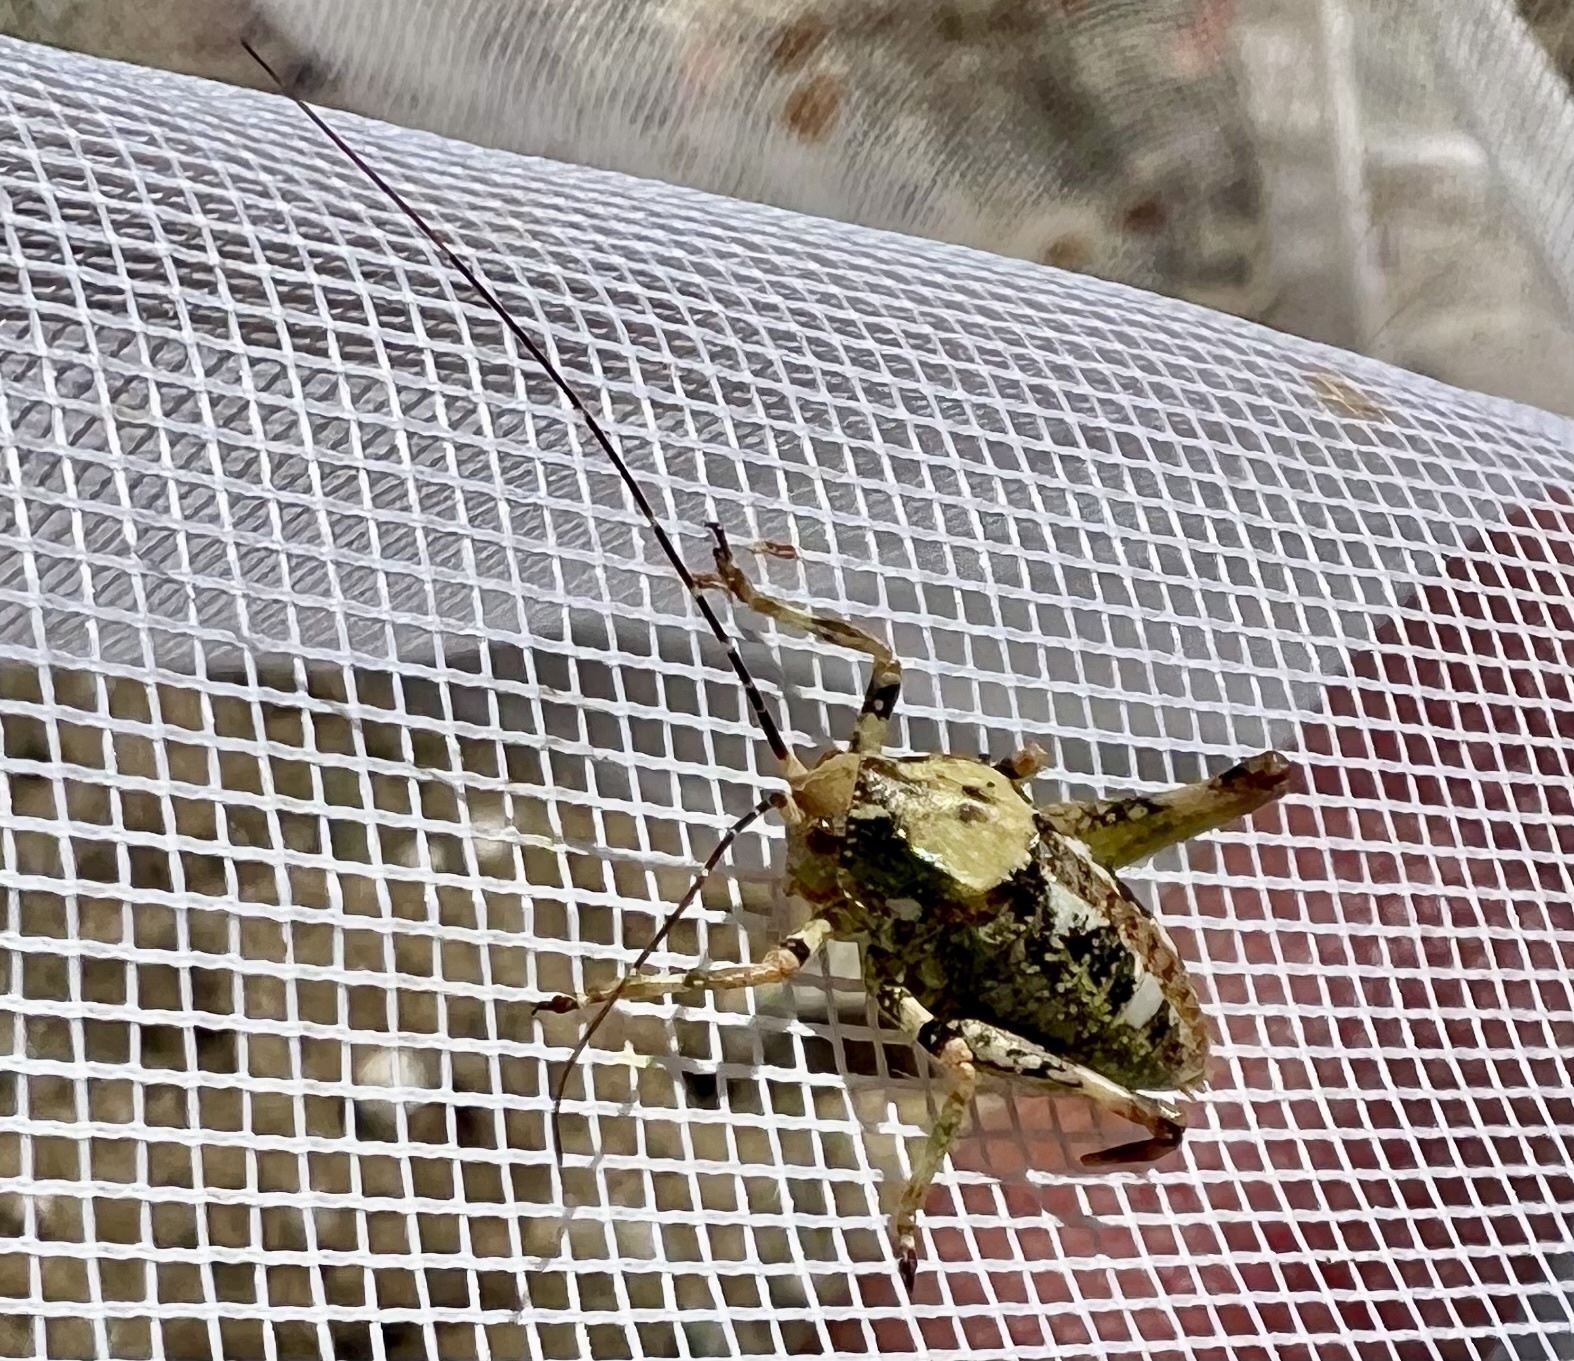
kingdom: Animalia
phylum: Arthropoda
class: Insecta
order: Orthoptera
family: Tettigoniidae
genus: Aglaothorax
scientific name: Aglaothorax ovatus
